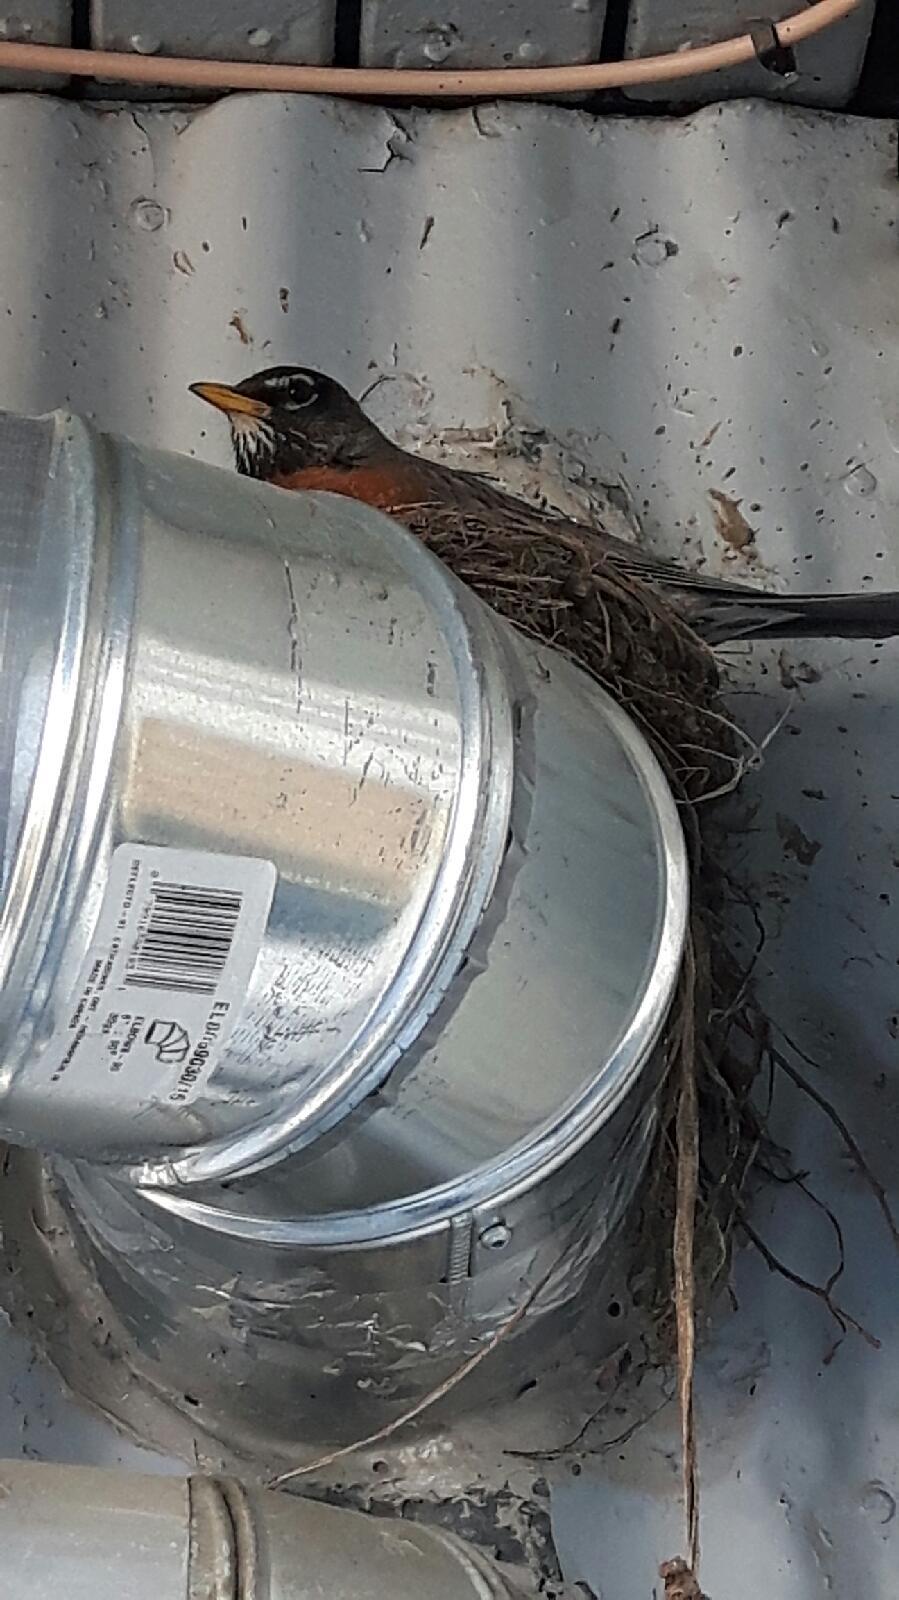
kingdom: Animalia
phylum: Chordata
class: Aves
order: Passeriformes
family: Turdidae
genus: Turdus
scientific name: Turdus migratorius
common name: American robin
